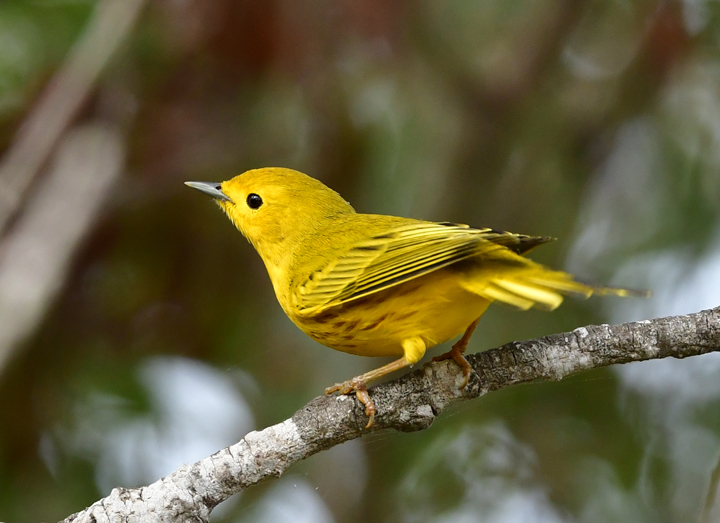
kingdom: Animalia
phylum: Chordata
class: Aves
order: Passeriformes
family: Parulidae
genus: Setophaga
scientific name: Setophaga petechia
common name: Yellow warbler
